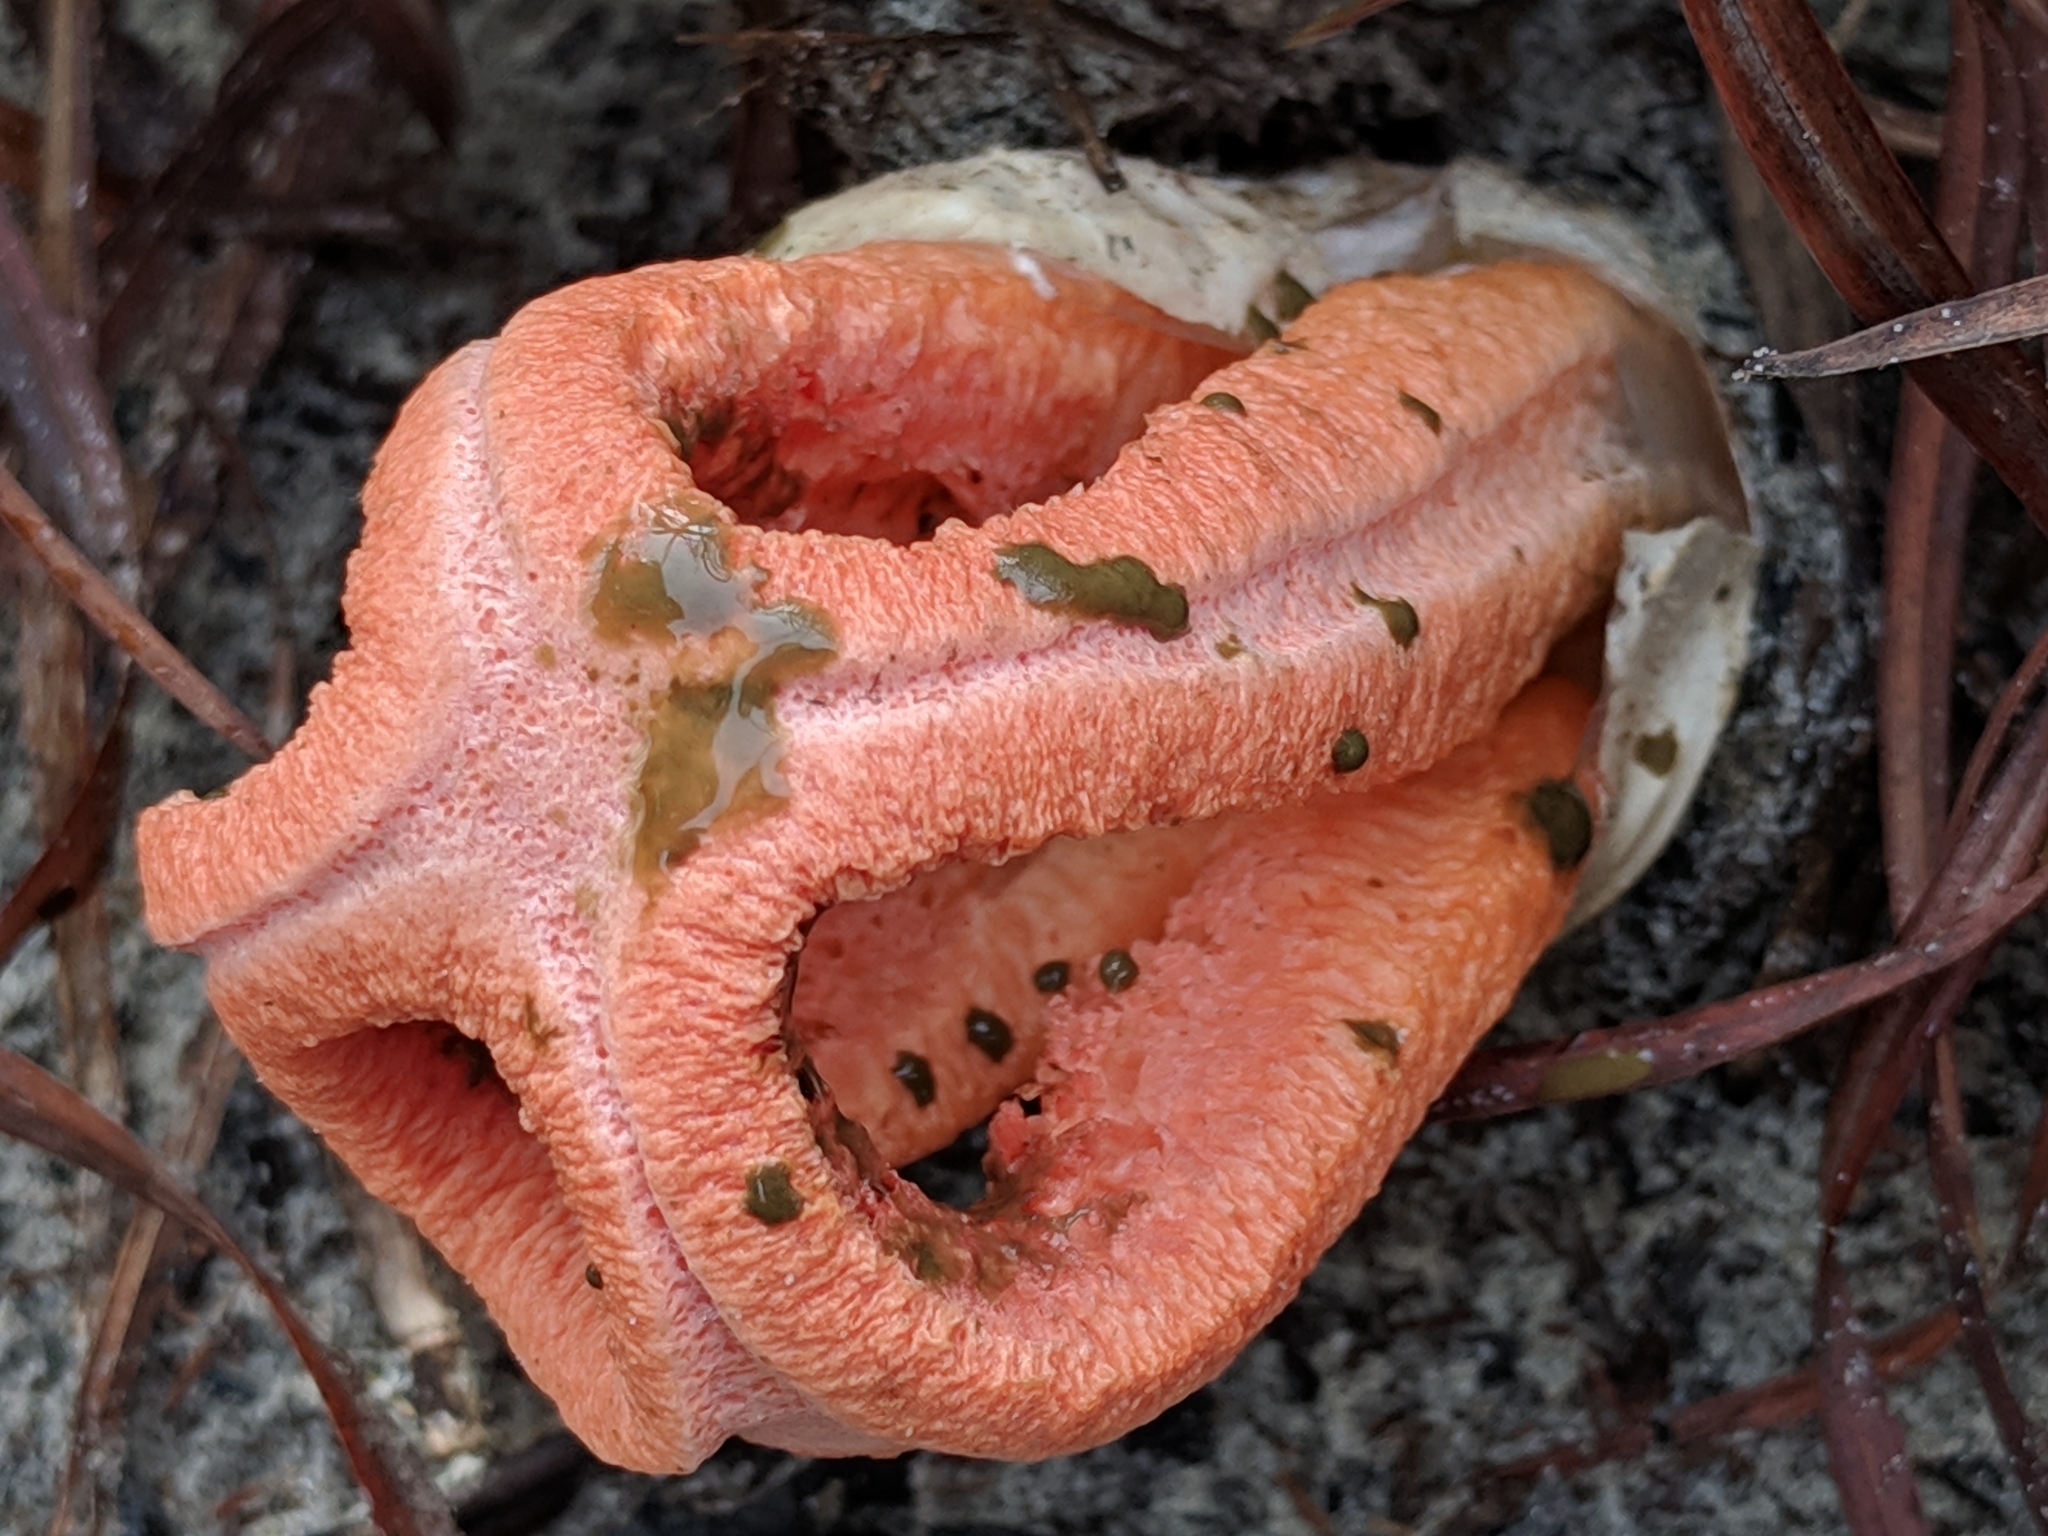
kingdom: Fungi
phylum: Basidiomycota
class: Agaricomycetes
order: Phallales
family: Phallaceae
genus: Clathrus
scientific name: Clathrus columnatus
